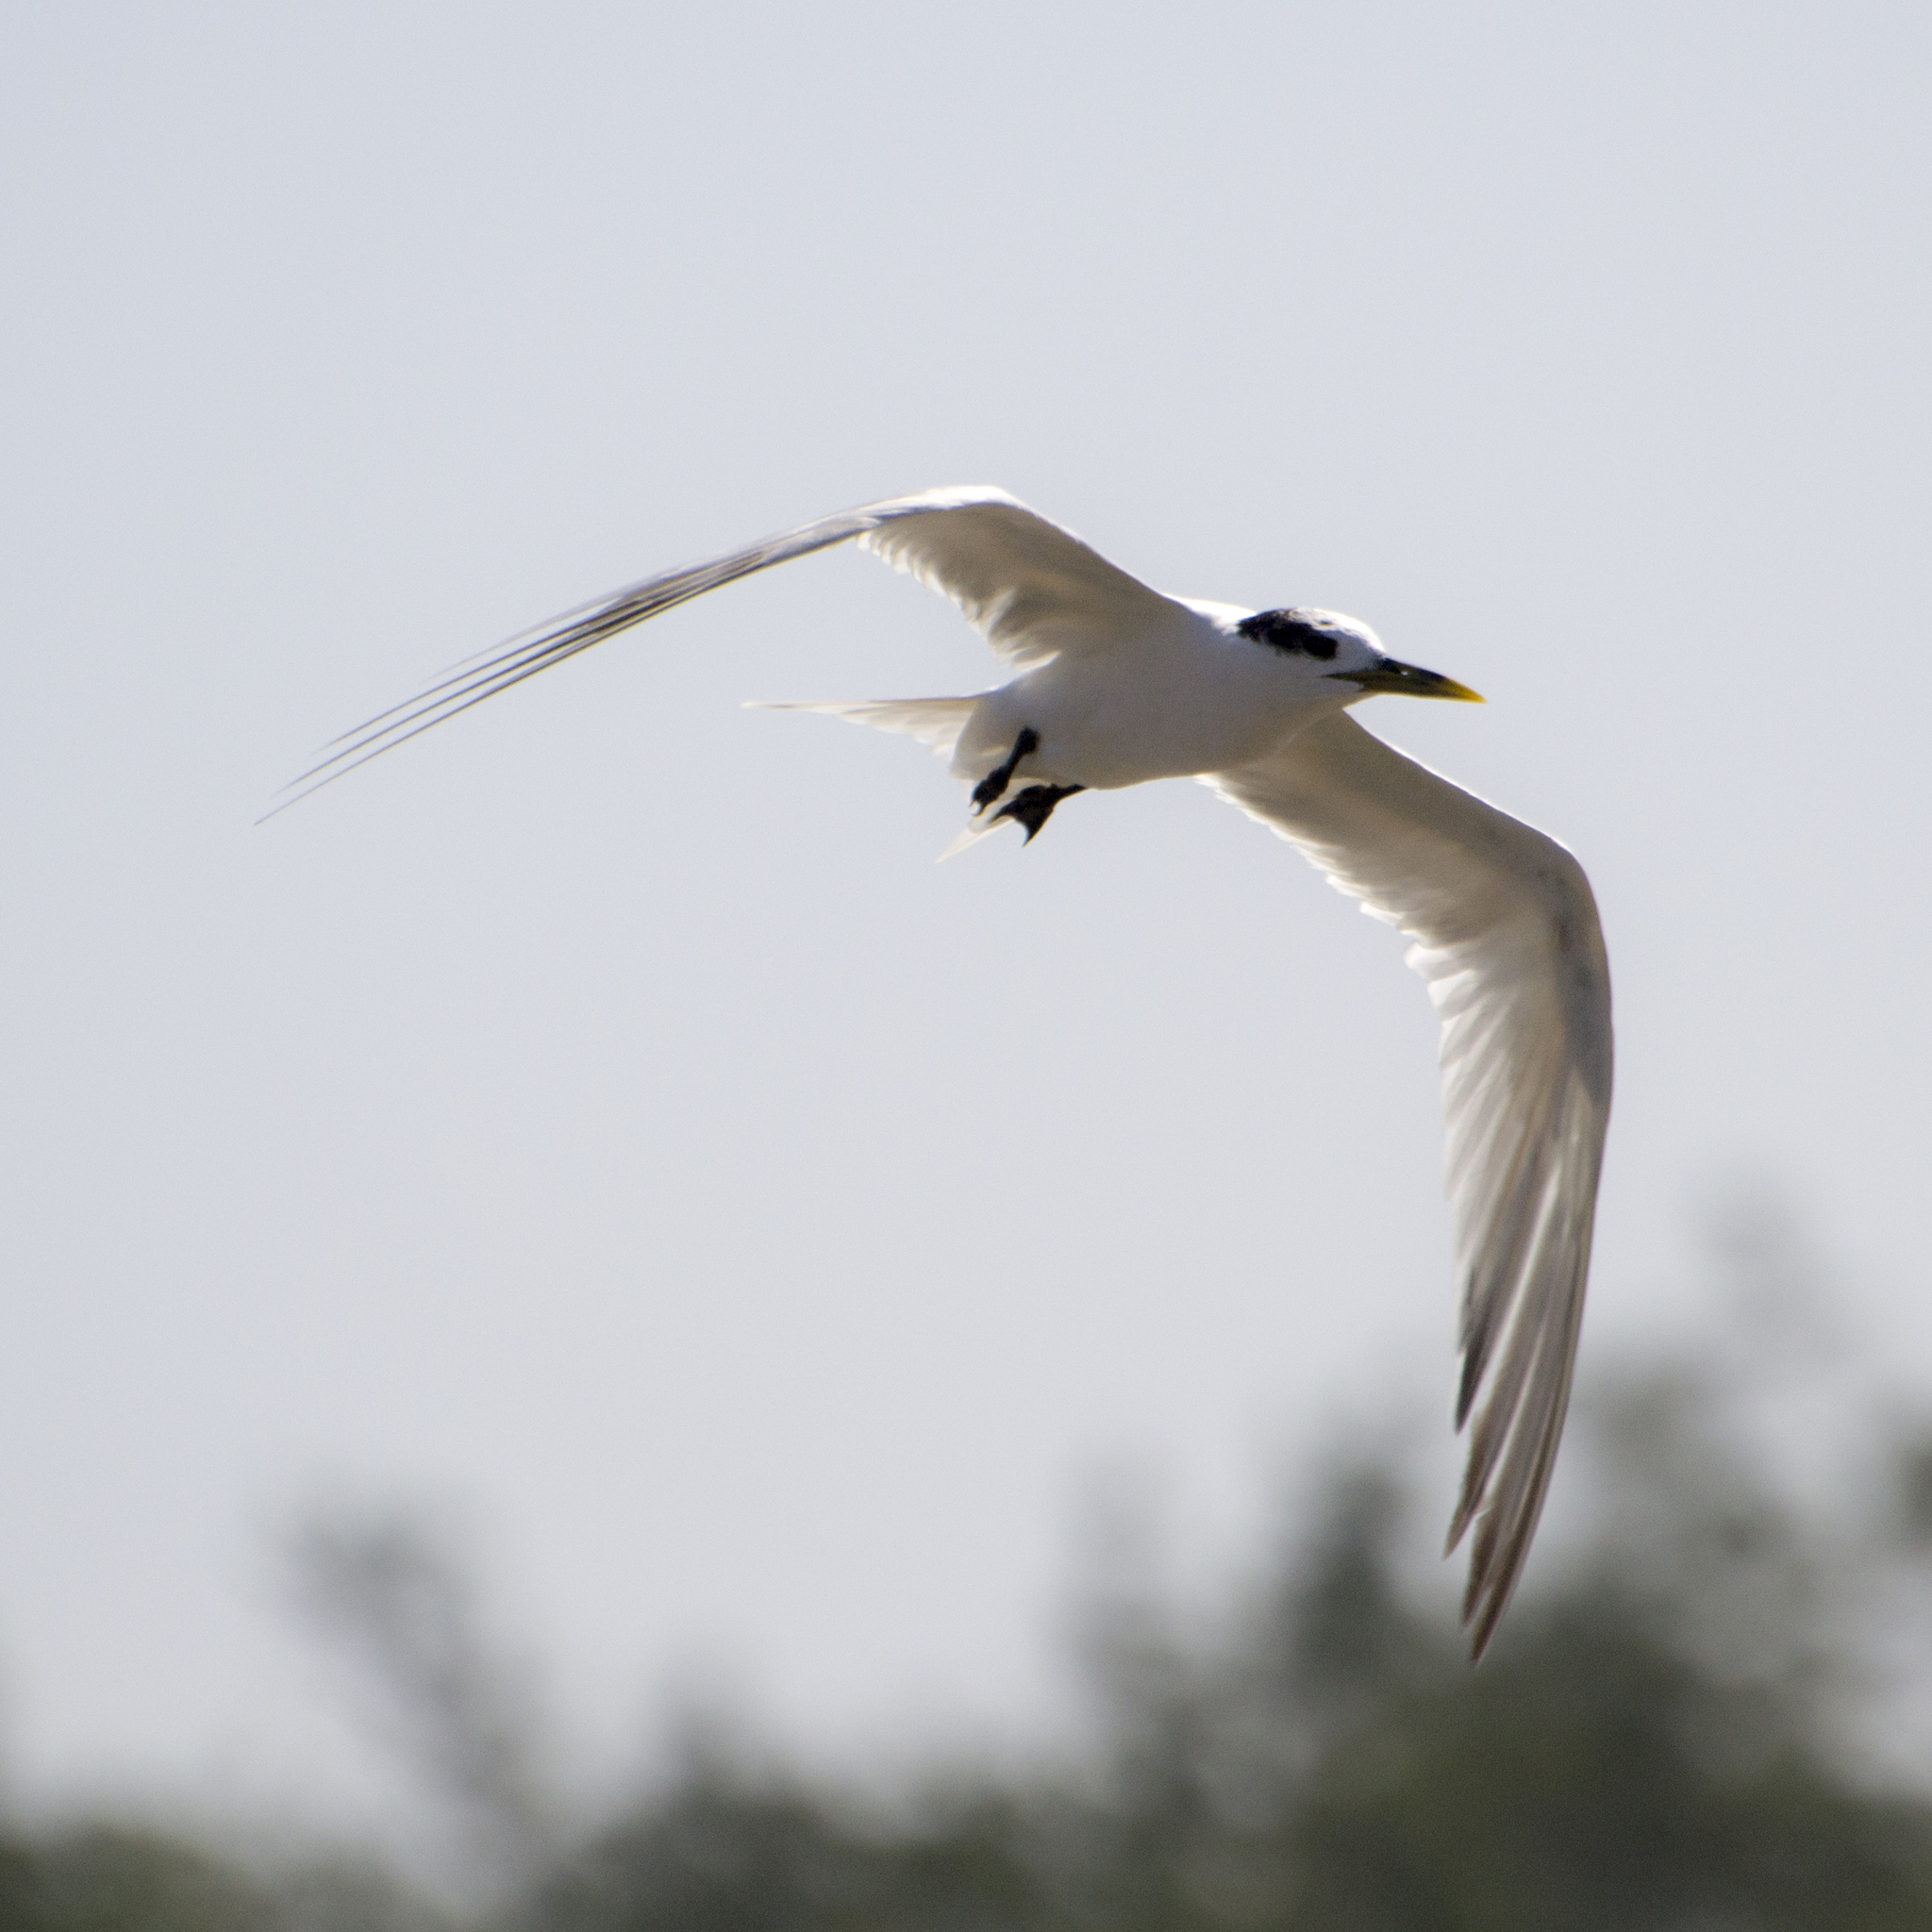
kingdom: Animalia
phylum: Chordata
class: Aves
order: Charadriiformes
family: Laridae
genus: Thalasseus
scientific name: Thalasseus sandvicensis
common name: Sandwich tern
